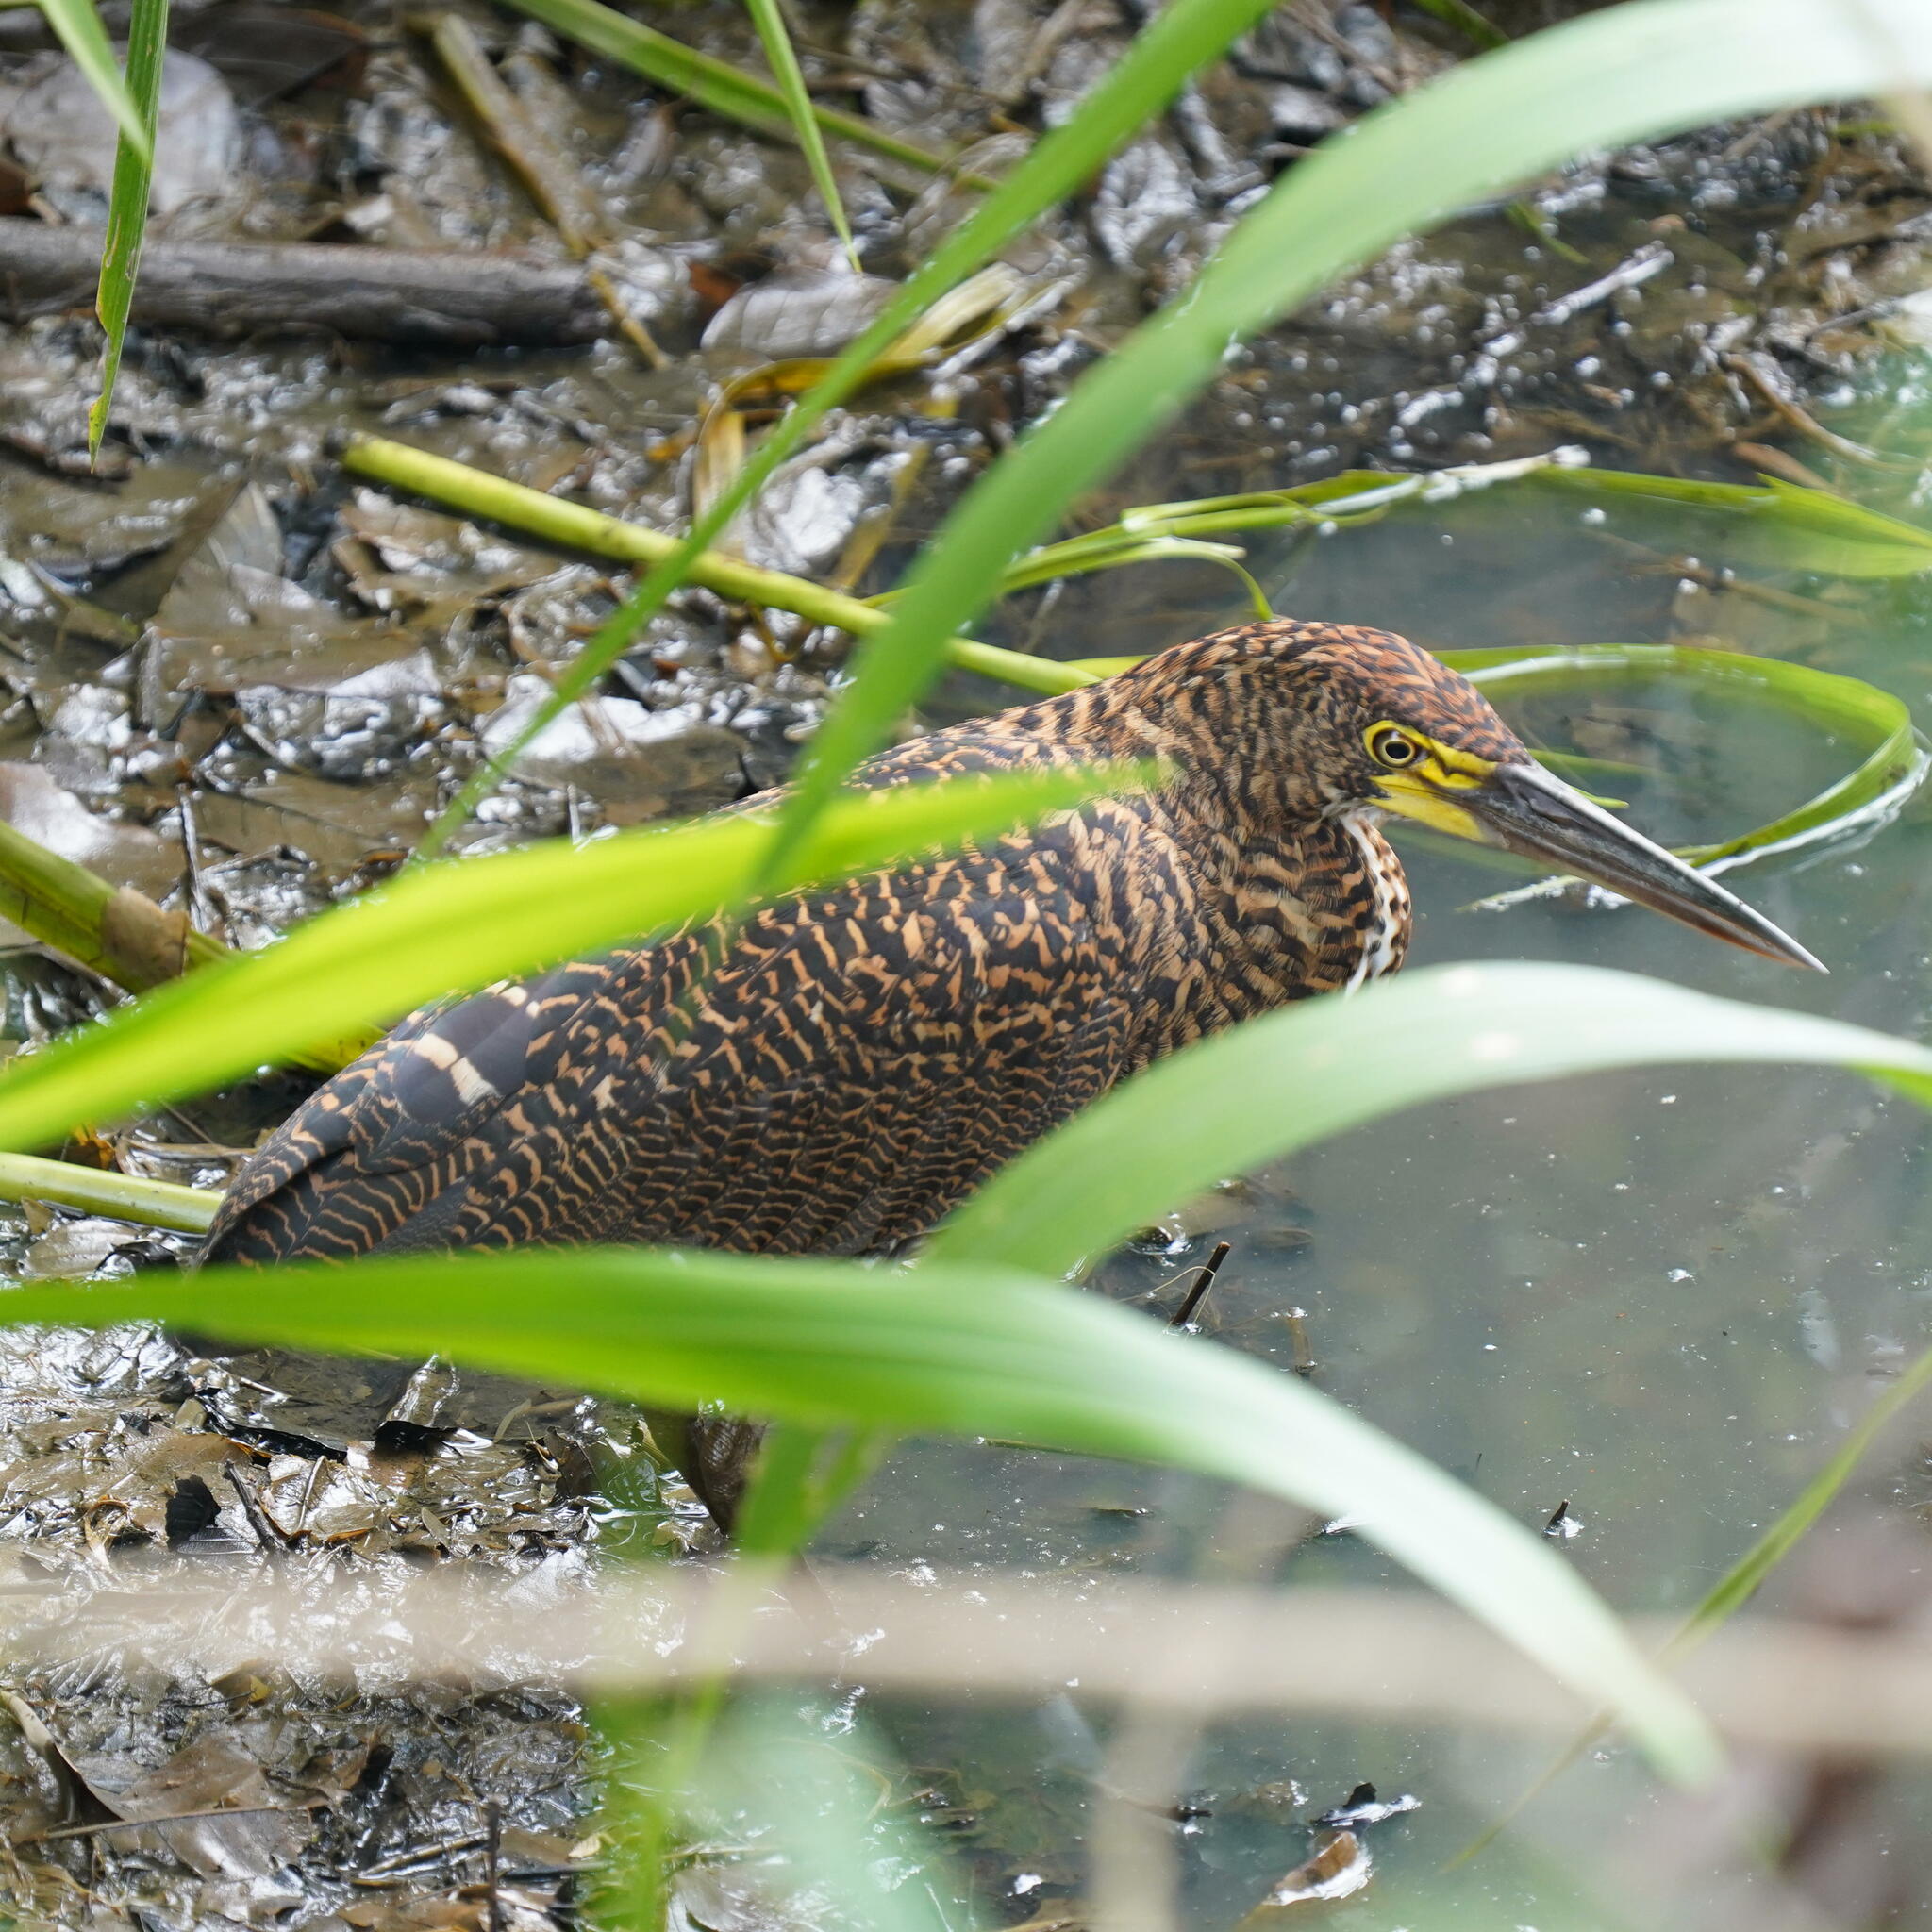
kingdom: Animalia
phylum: Chordata
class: Aves
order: Pelecaniformes
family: Ardeidae
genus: Tigrisoma
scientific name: Tigrisoma lineatum
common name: Rufescent tiger-heron
